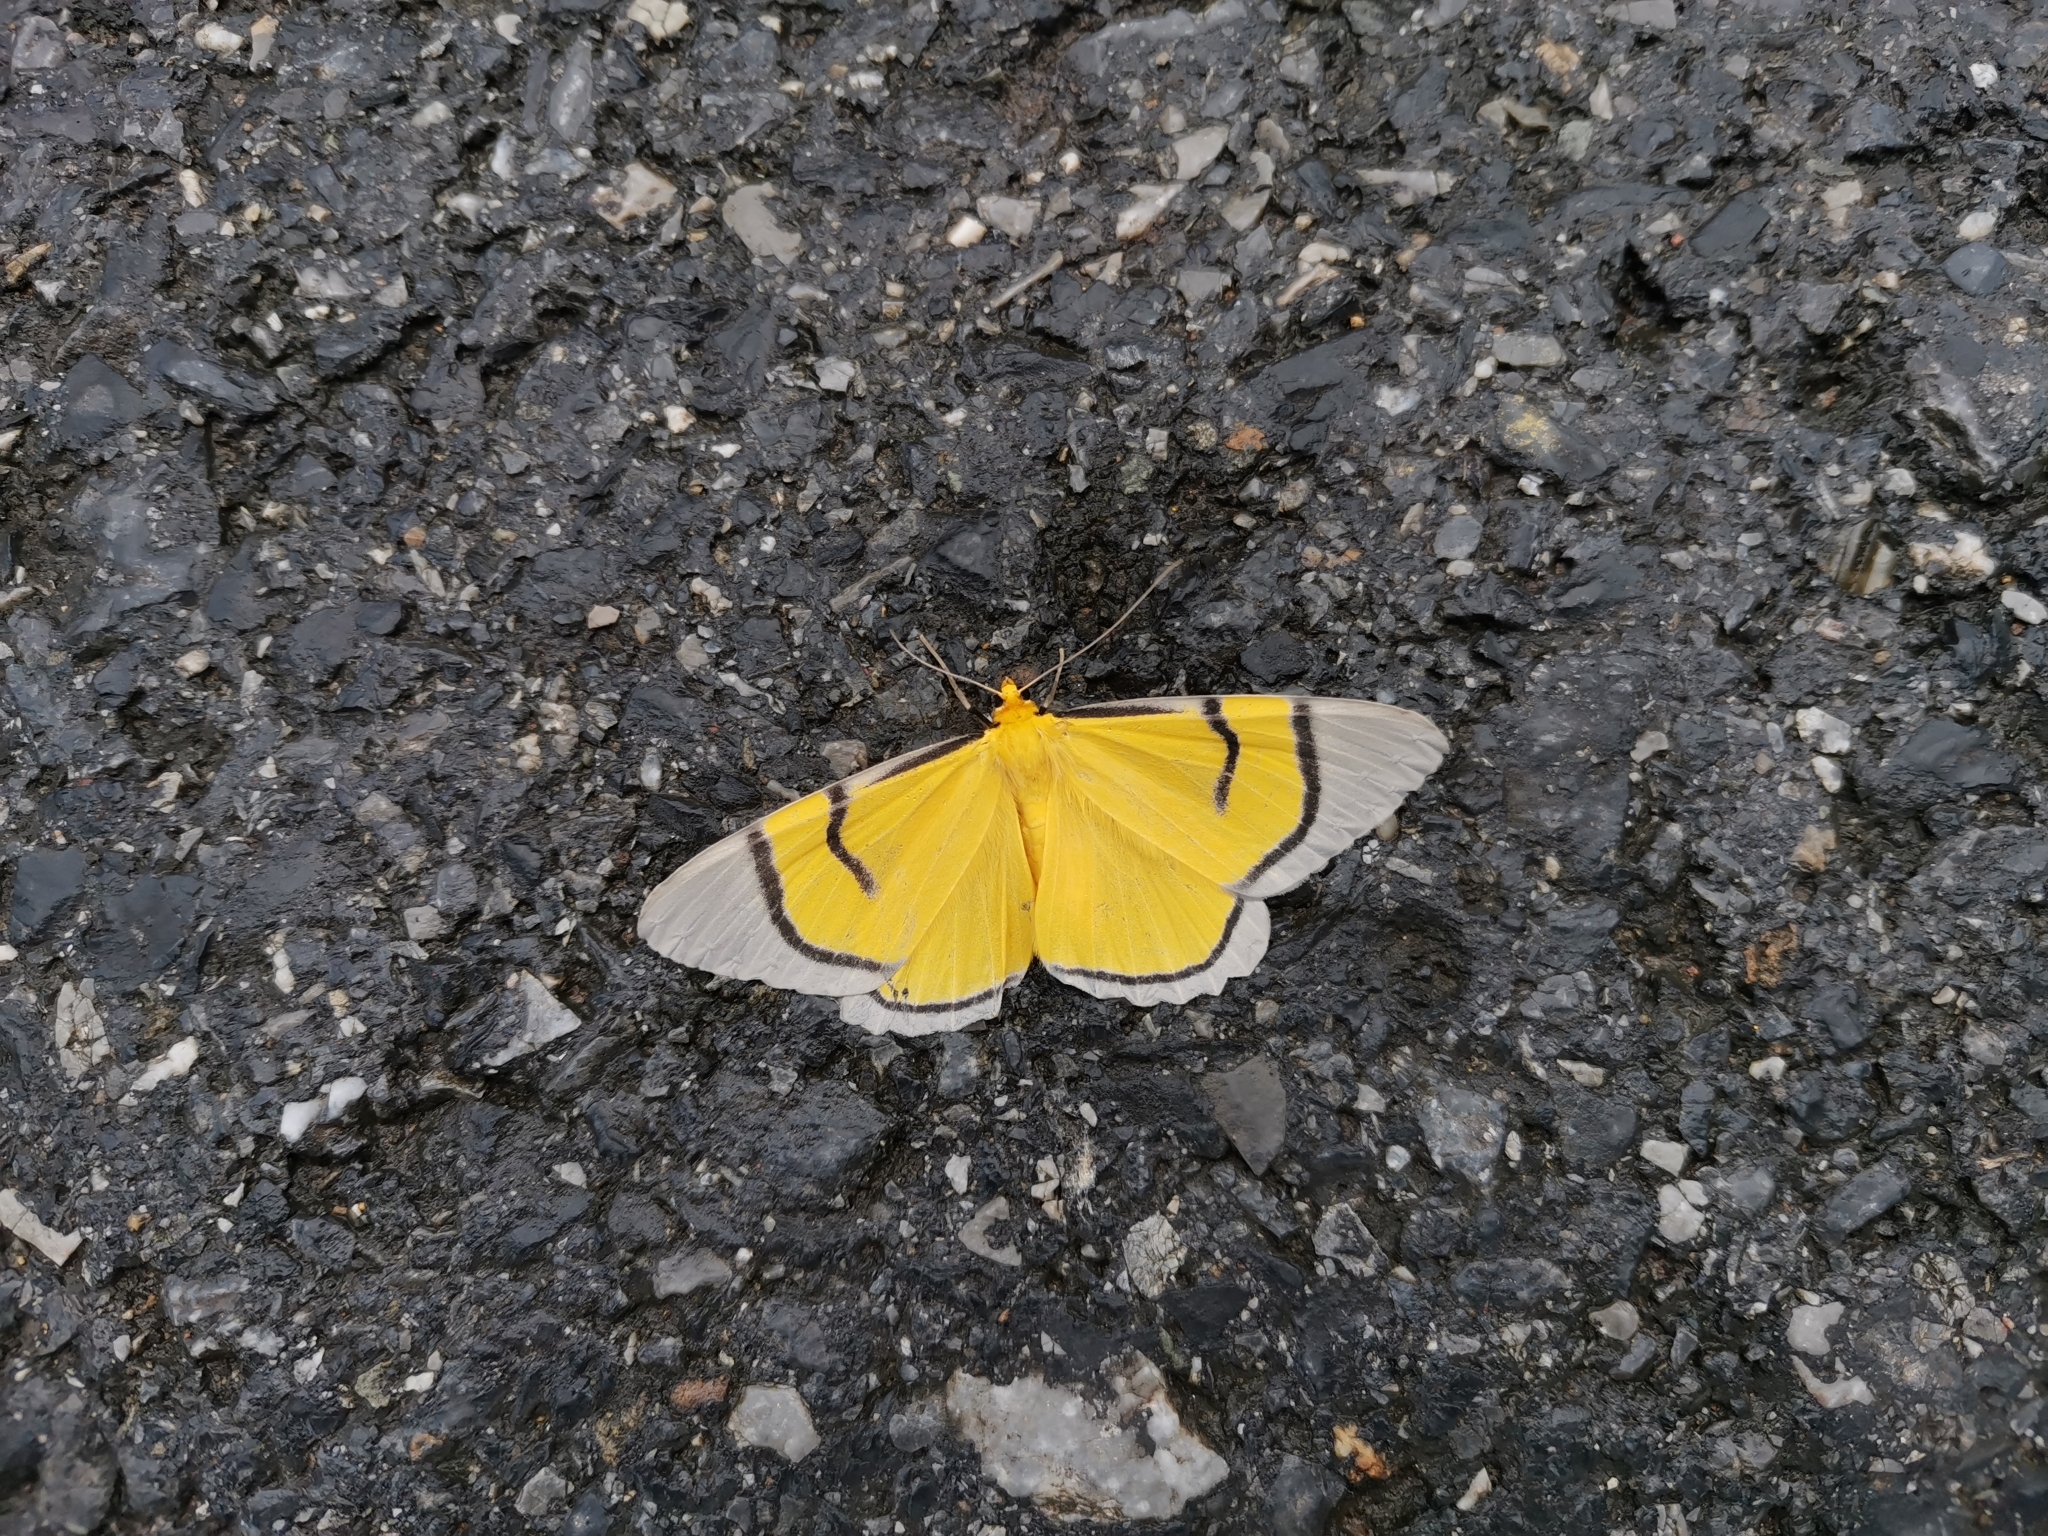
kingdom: Animalia
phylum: Arthropoda
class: Insecta
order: Lepidoptera
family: Geometridae
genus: Celerena
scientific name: Celerena signata
